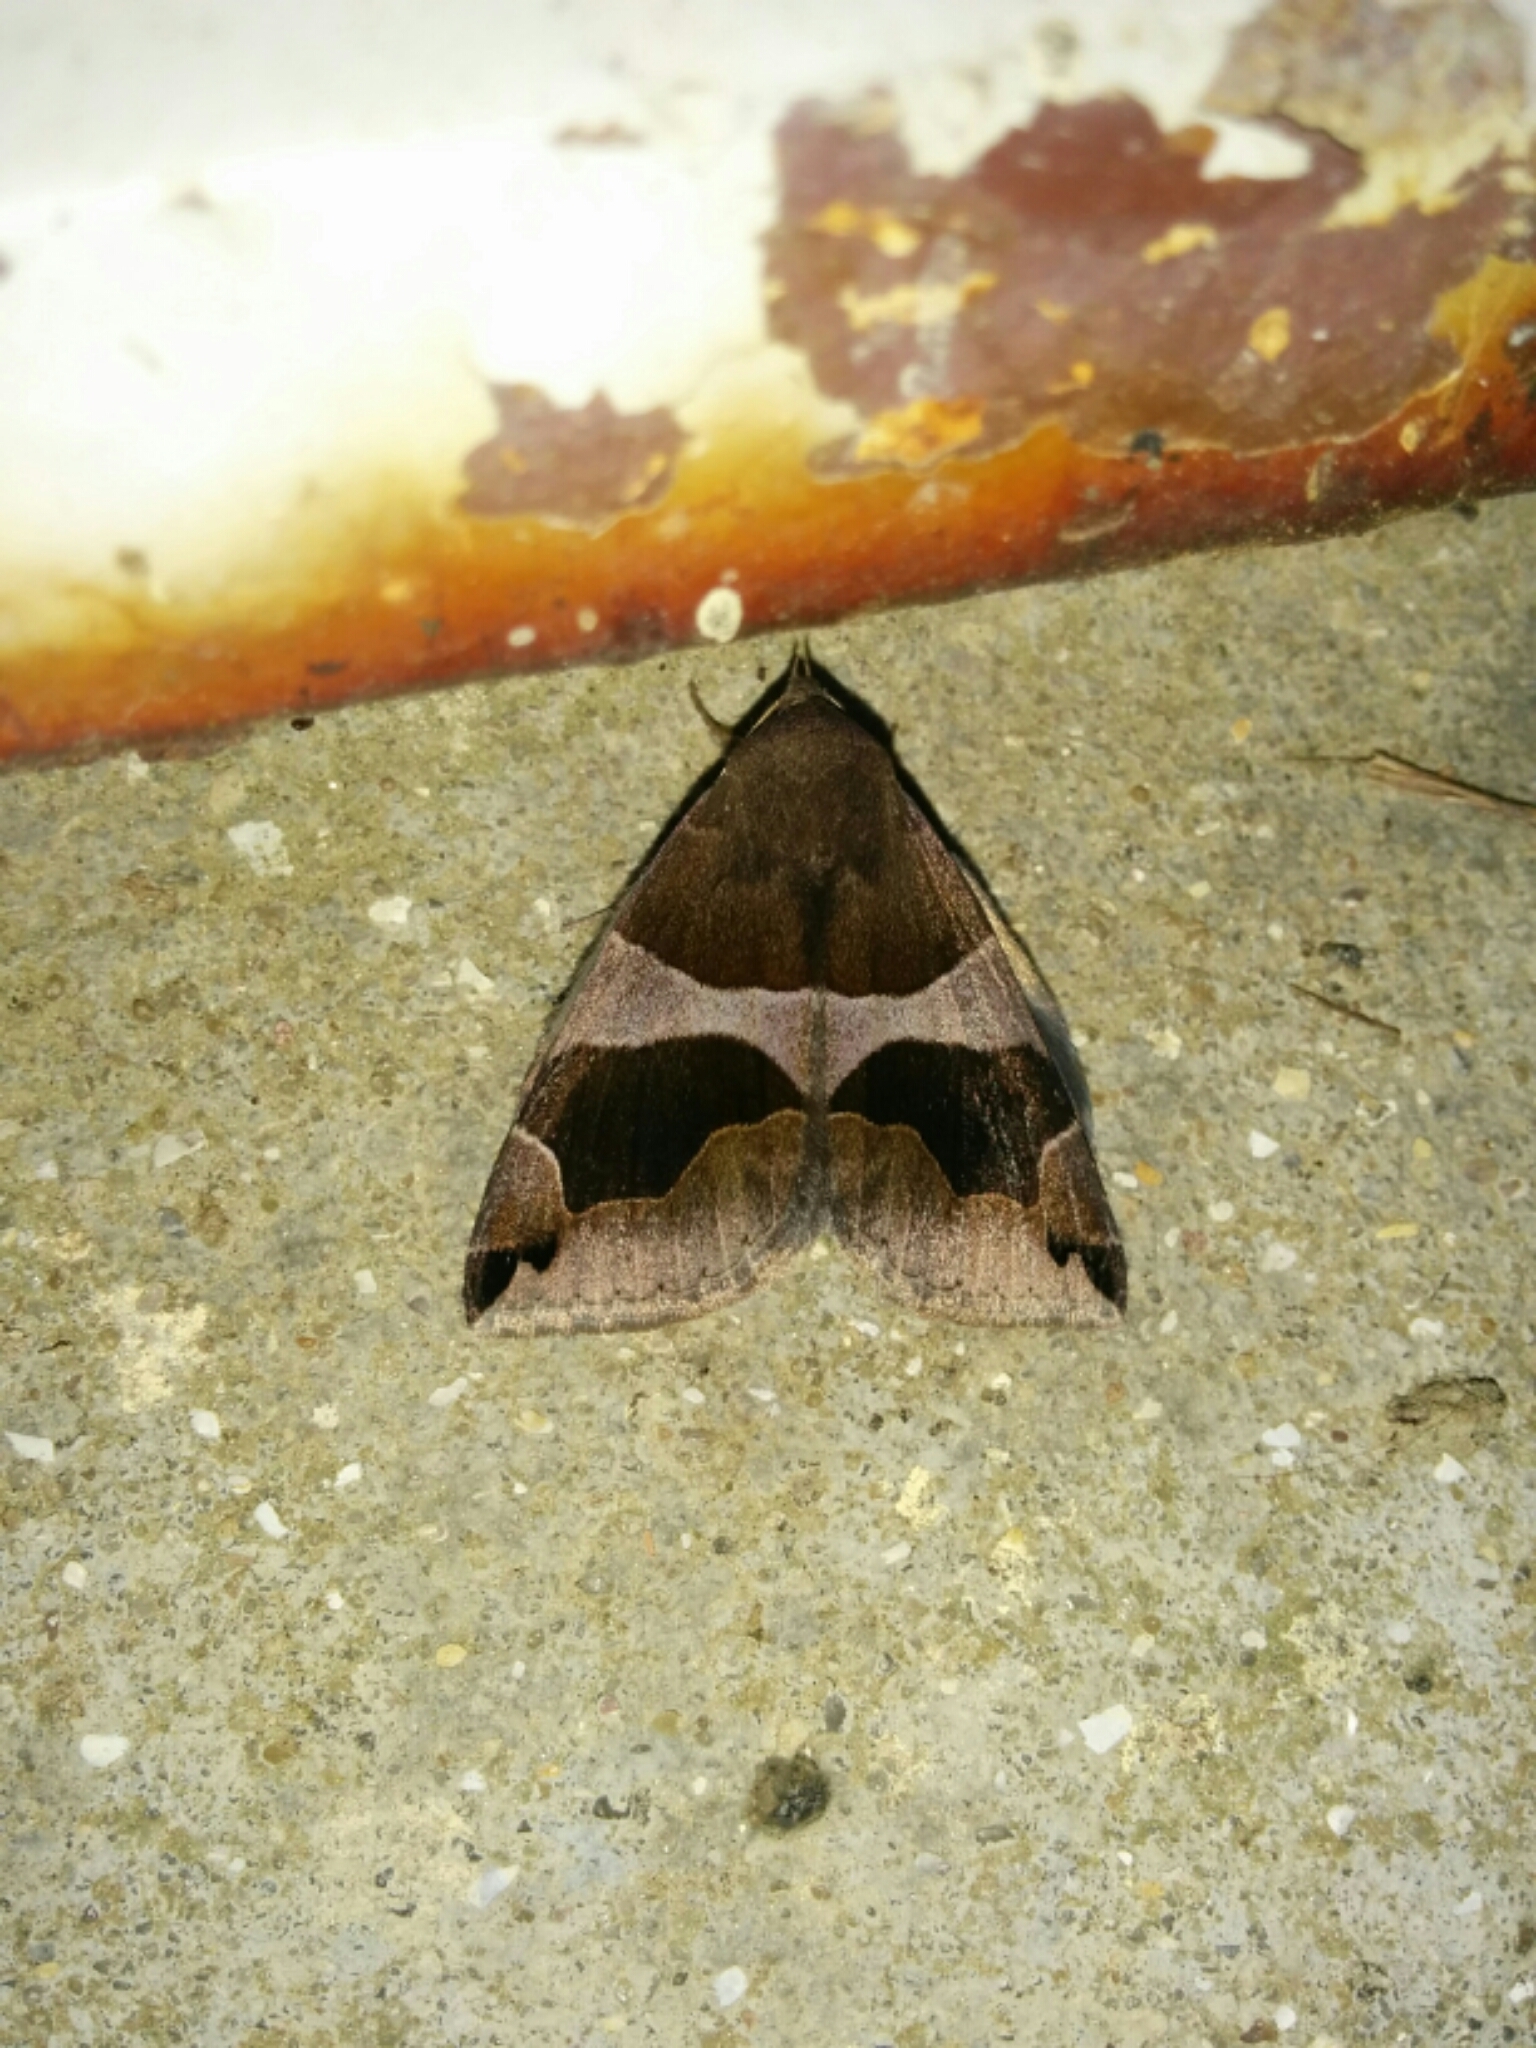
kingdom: Animalia
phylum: Arthropoda
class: Insecta
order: Lepidoptera
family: Erebidae
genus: Dysgonia
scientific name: Dysgonia algira
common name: Passenger
